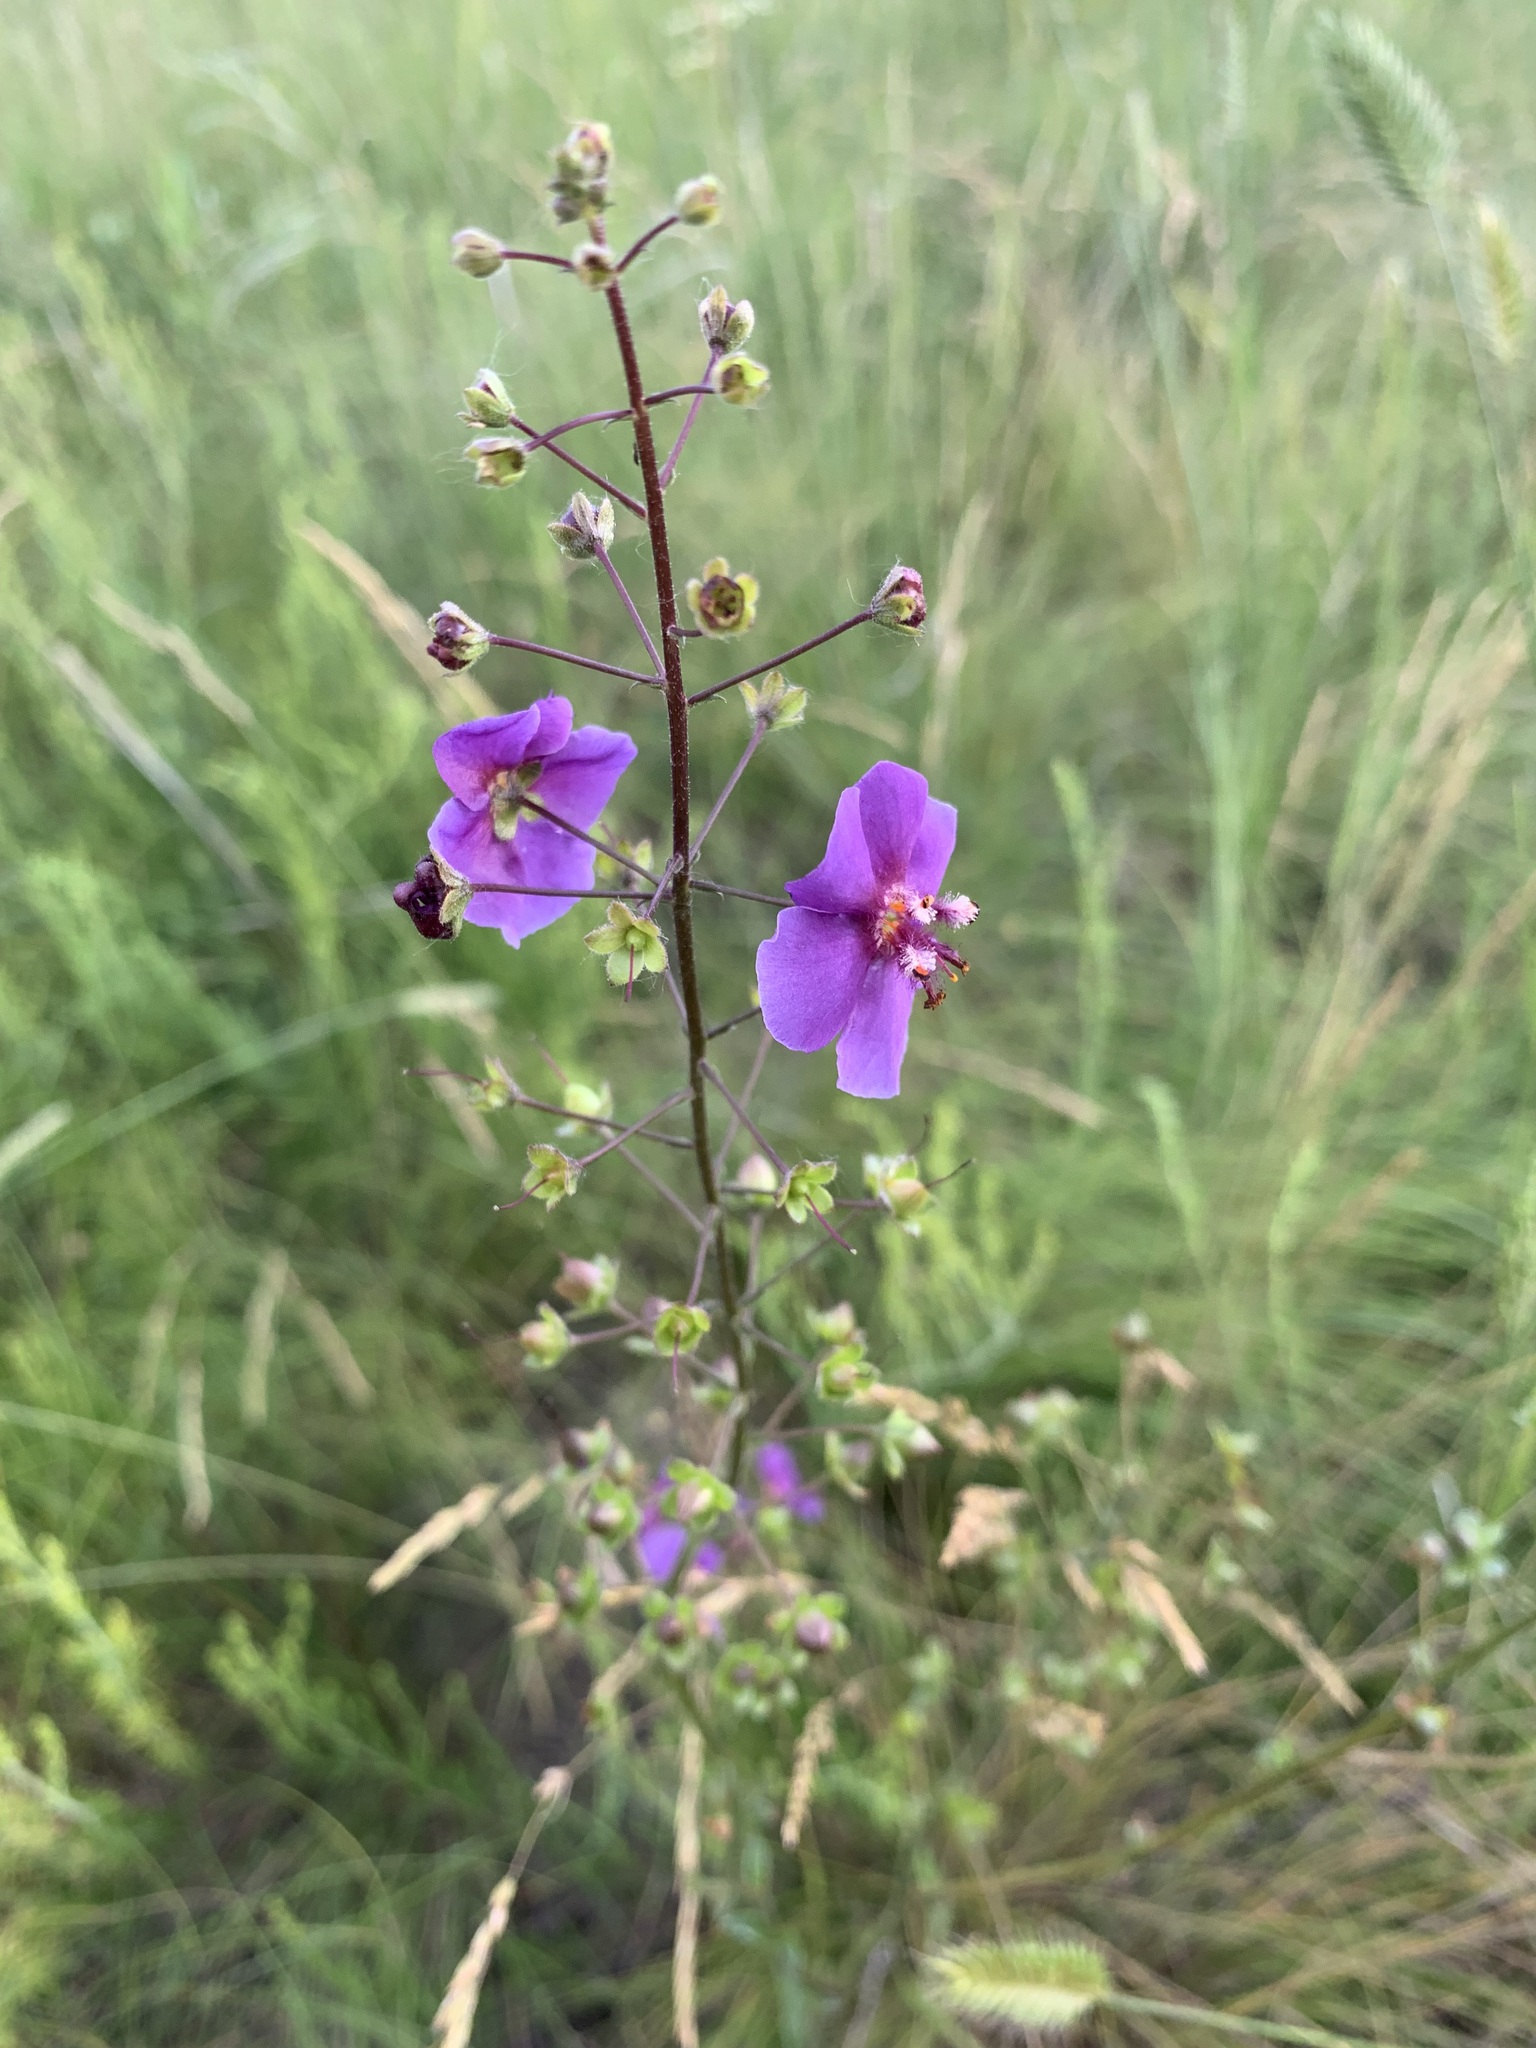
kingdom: Plantae
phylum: Tracheophyta
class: Magnoliopsida
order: Lamiales
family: Scrophulariaceae
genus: Verbascum
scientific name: Verbascum phoeniceum
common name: Purple mullein
